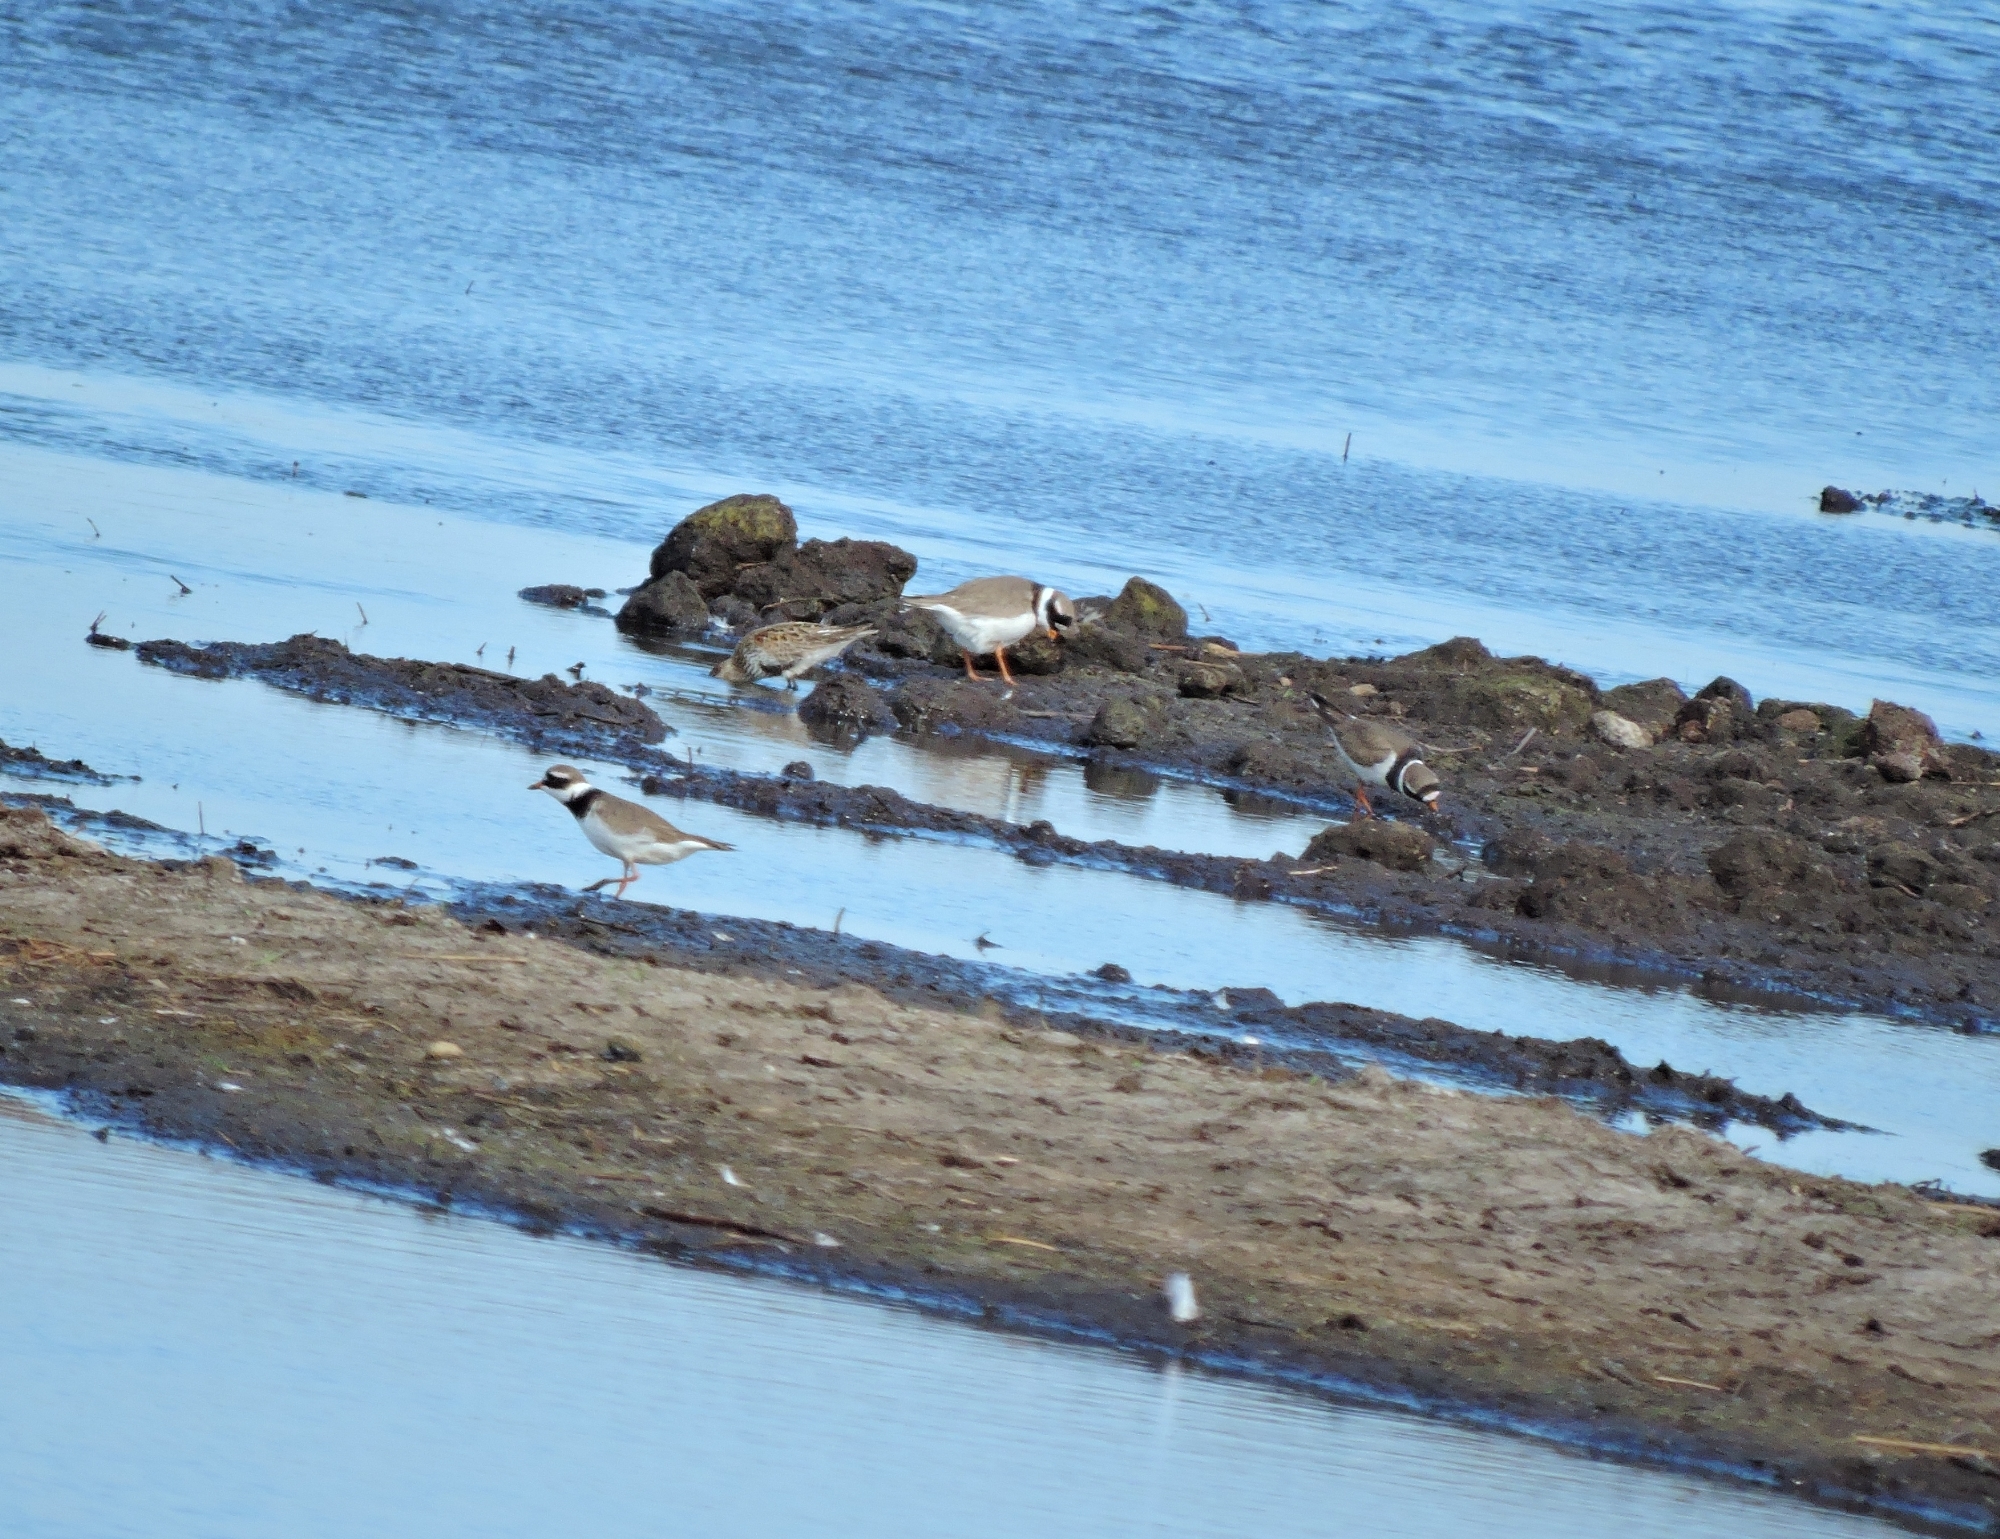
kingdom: Animalia
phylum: Chordata
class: Aves
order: Charadriiformes
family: Charadriidae
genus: Charadrius
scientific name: Charadrius hiaticula
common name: Common ringed plover
